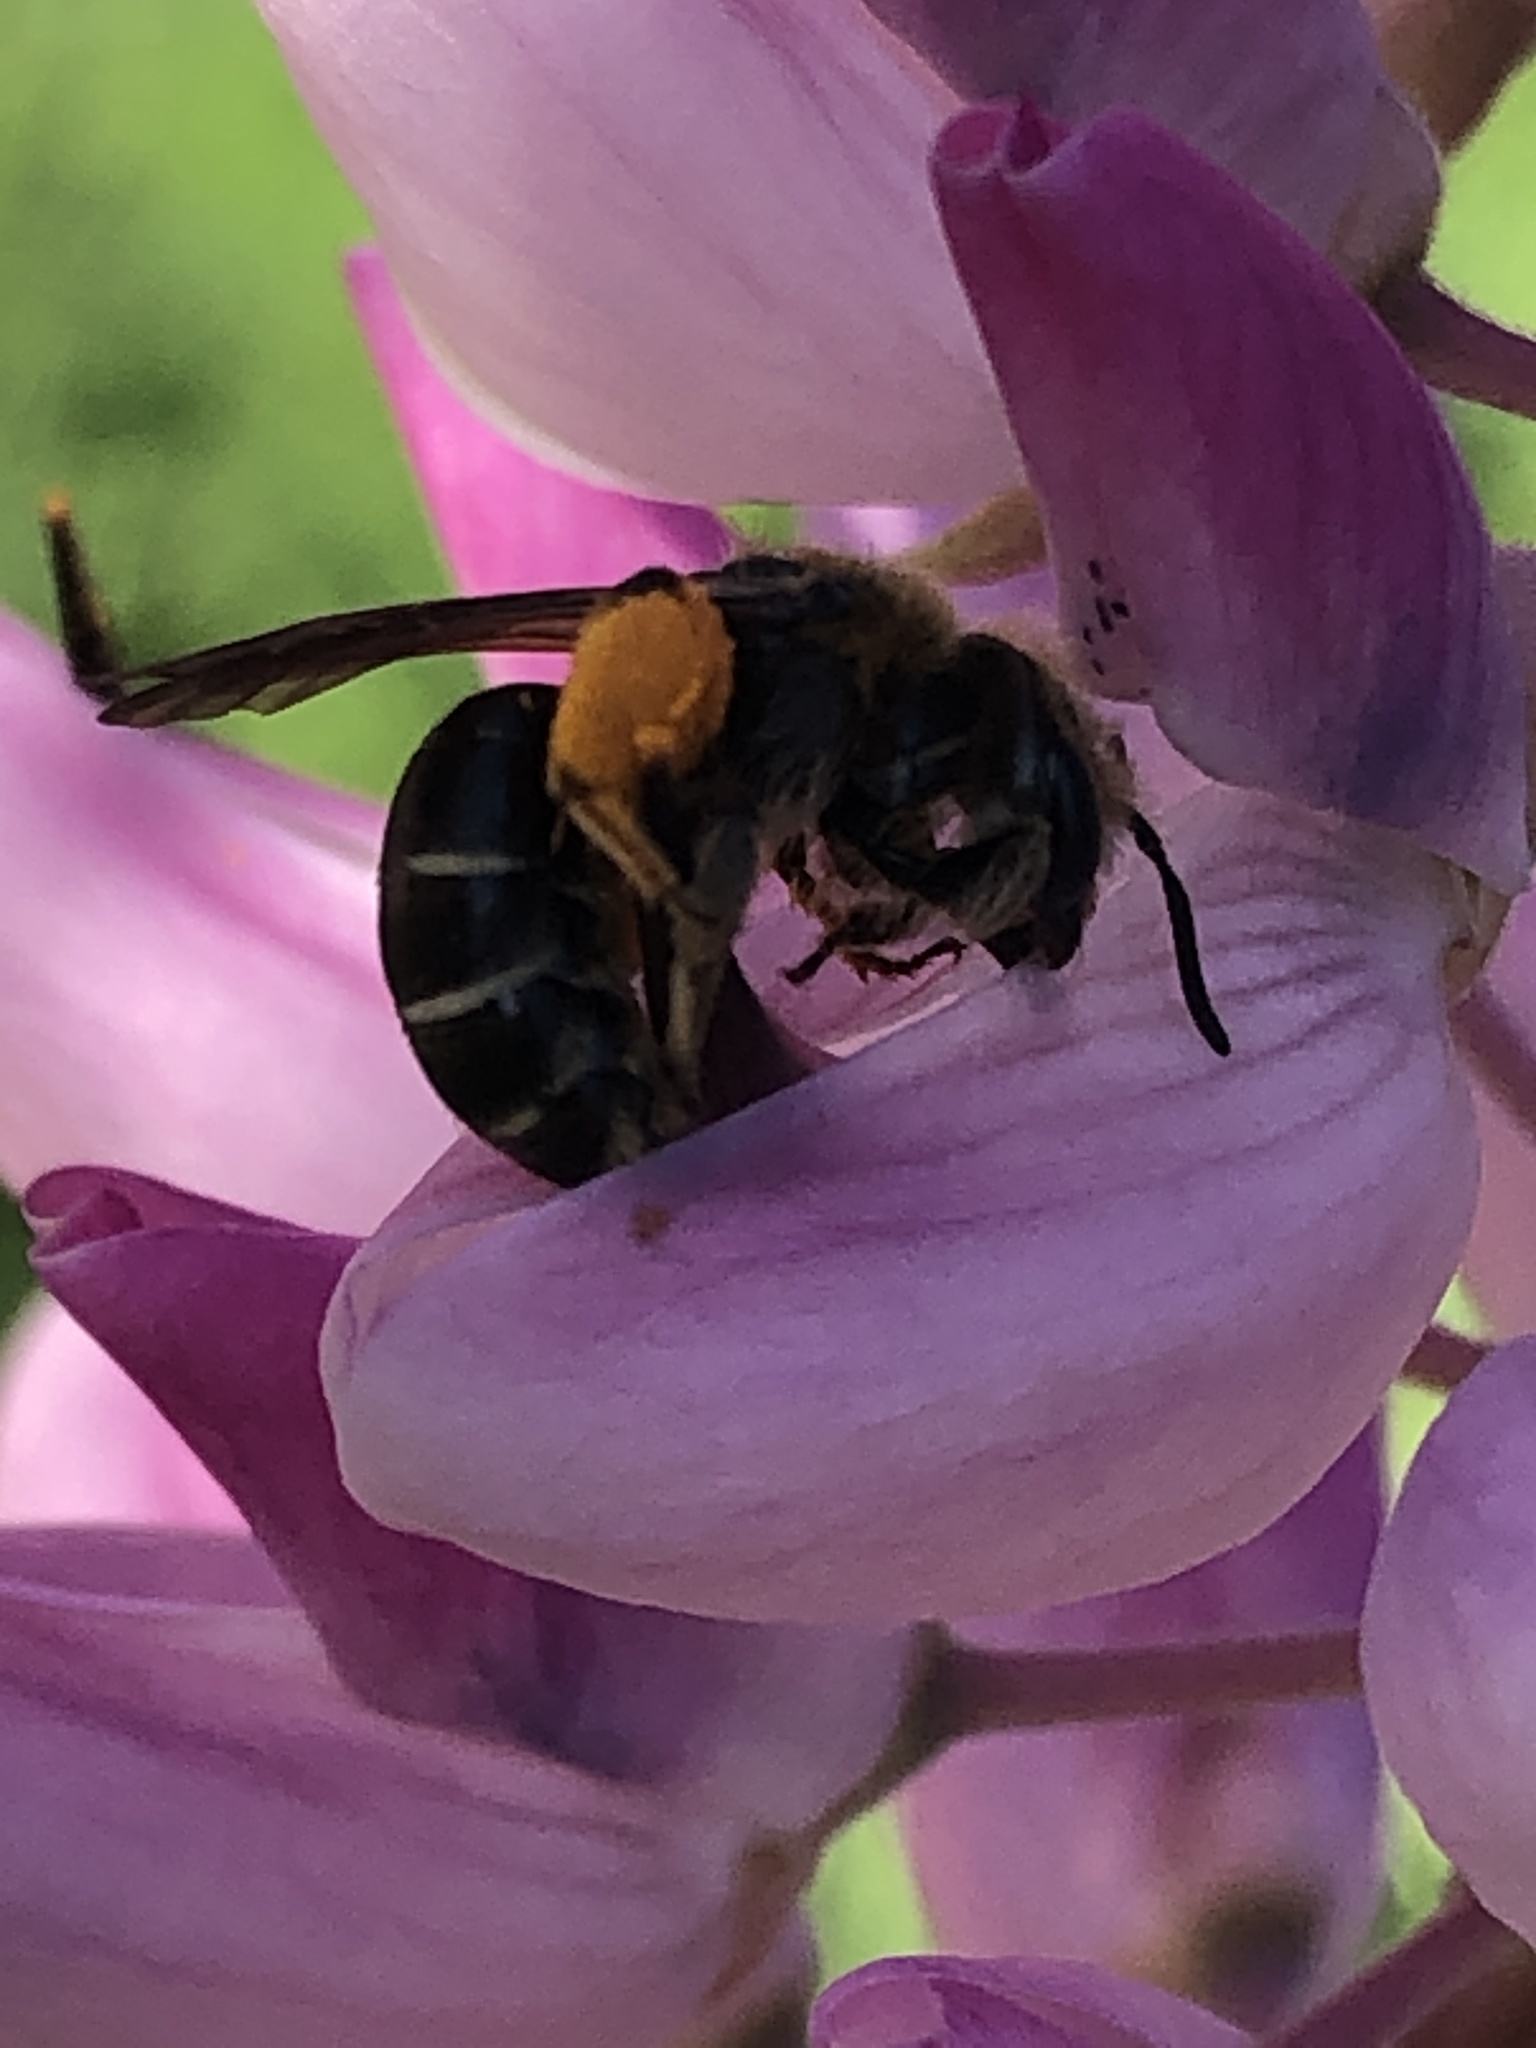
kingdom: Animalia
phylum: Arthropoda
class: Insecta
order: Hymenoptera
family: Andrenidae
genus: Andrena
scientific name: Andrena wilkella
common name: Wilke's mining bee
